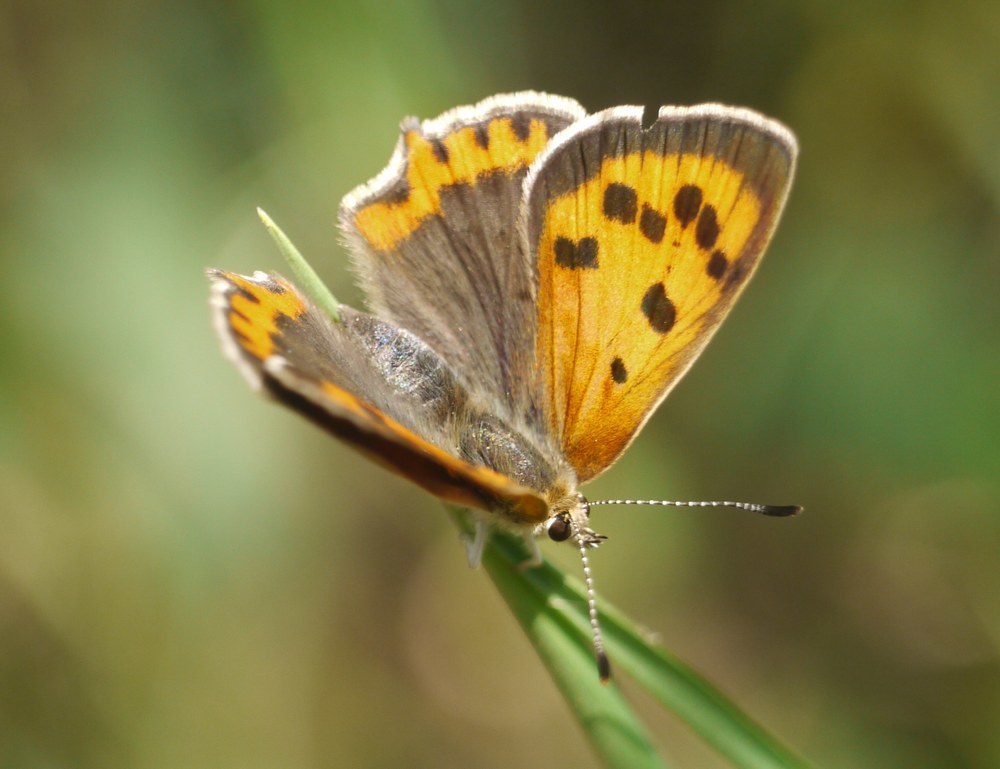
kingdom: Animalia
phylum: Arthropoda
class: Insecta
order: Lepidoptera
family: Lycaenidae
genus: Lycaena
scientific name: Lycaena phlaeas
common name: Small copper
